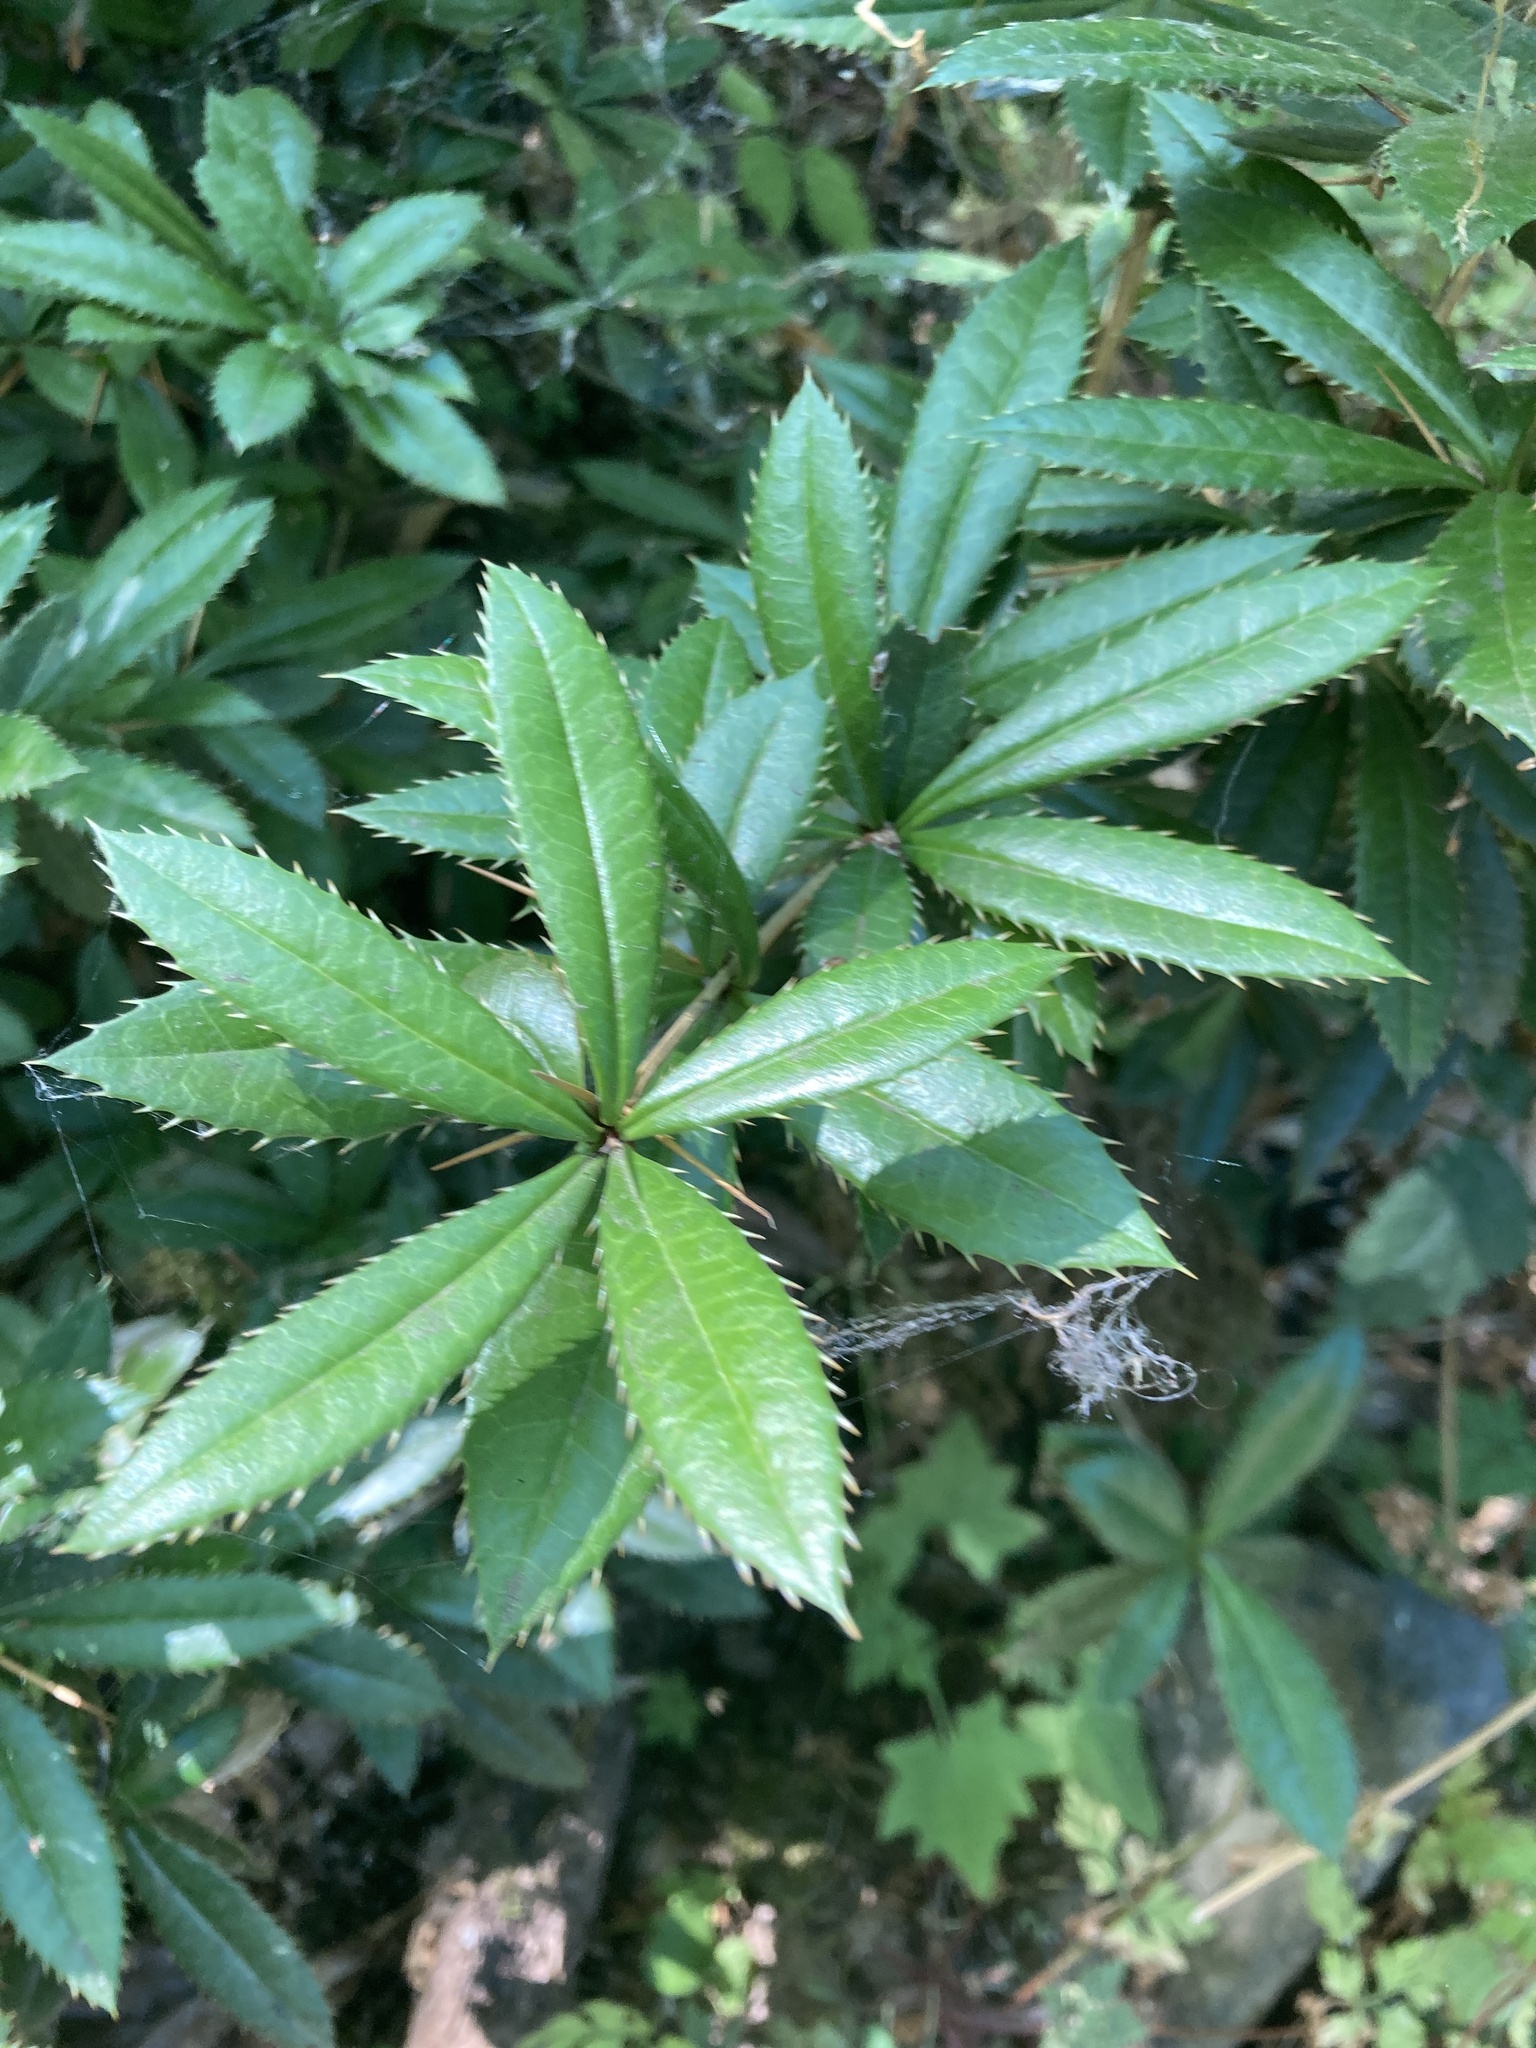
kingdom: Plantae
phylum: Tracheophyta
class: Magnoliopsida
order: Ranunculales
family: Berberidaceae
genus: Berberis
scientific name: Berberis julianae
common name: Wintergreen barberry
